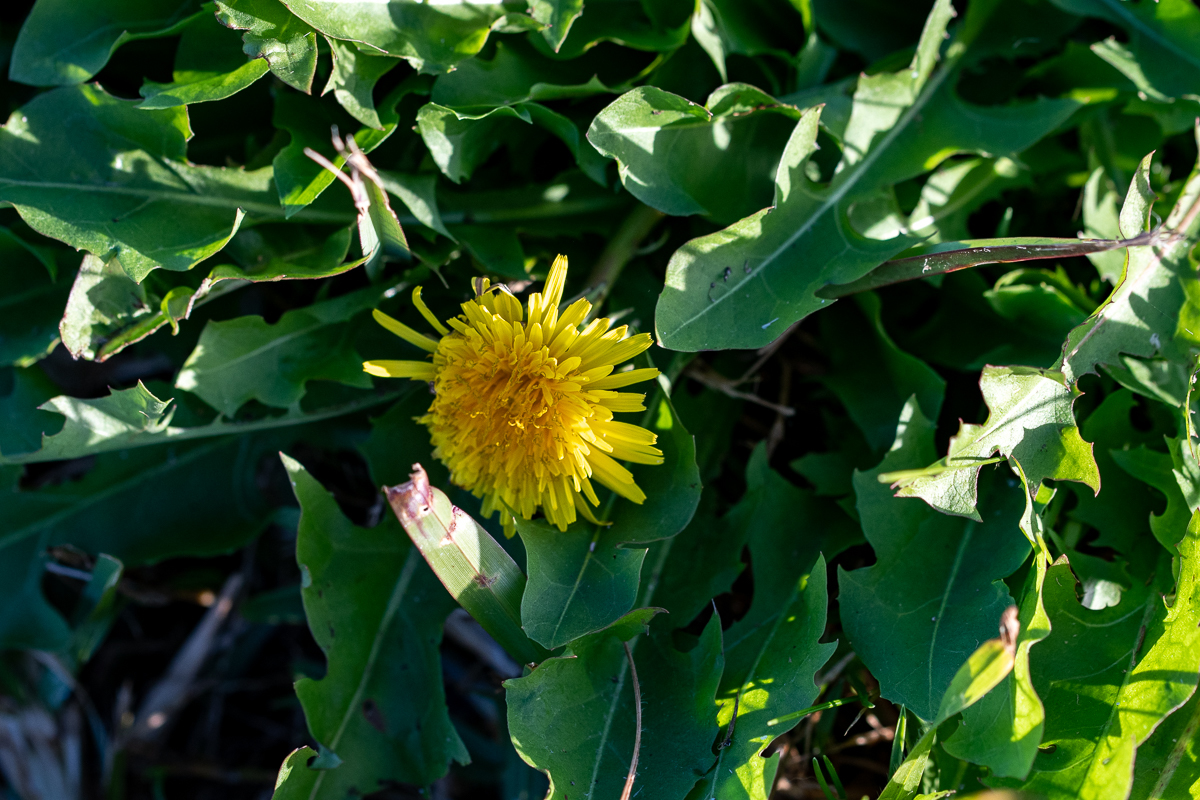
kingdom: Plantae
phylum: Tracheophyta
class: Magnoliopsida
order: Asterales
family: Asteraceae
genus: Taraxacum
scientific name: Taraxacum officinale
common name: Common dandelion
